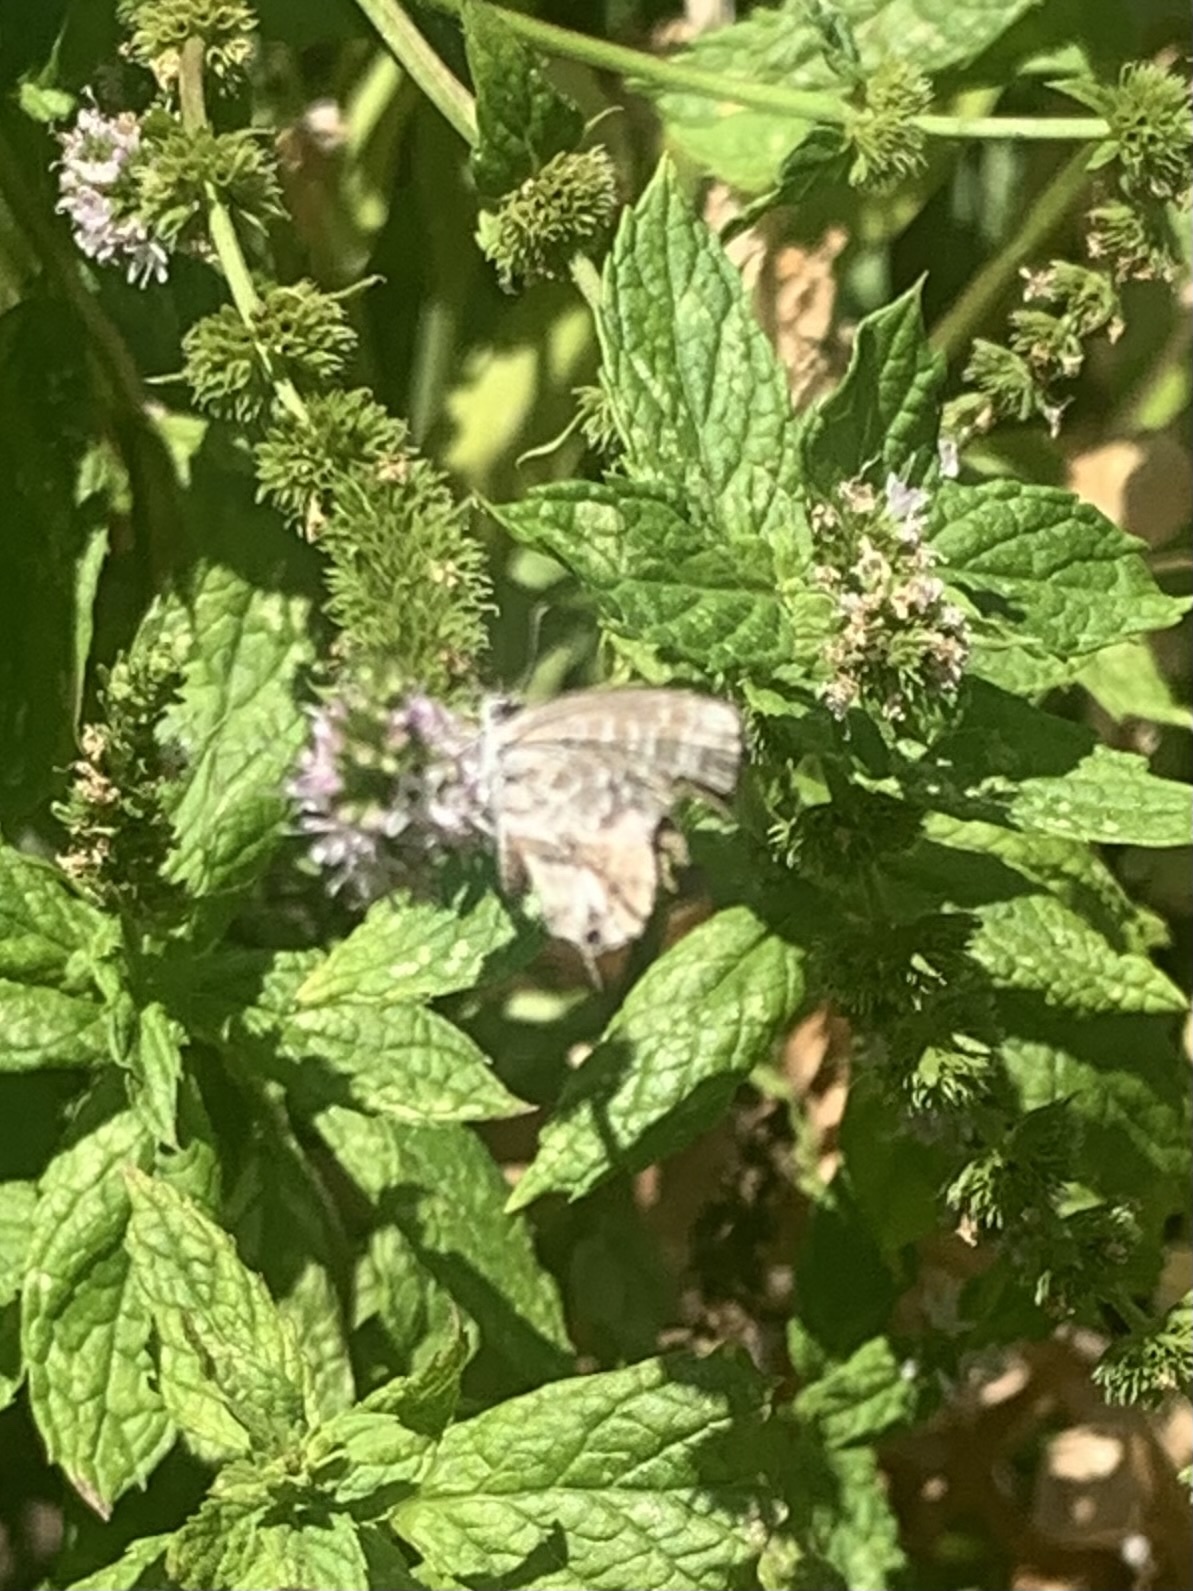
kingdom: Animalia
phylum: Arthropoda
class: Insecta
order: Lepidoptera
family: Lycaenidae
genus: Cacyreus
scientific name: Cacyreus marshalli
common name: Geranium bronze
